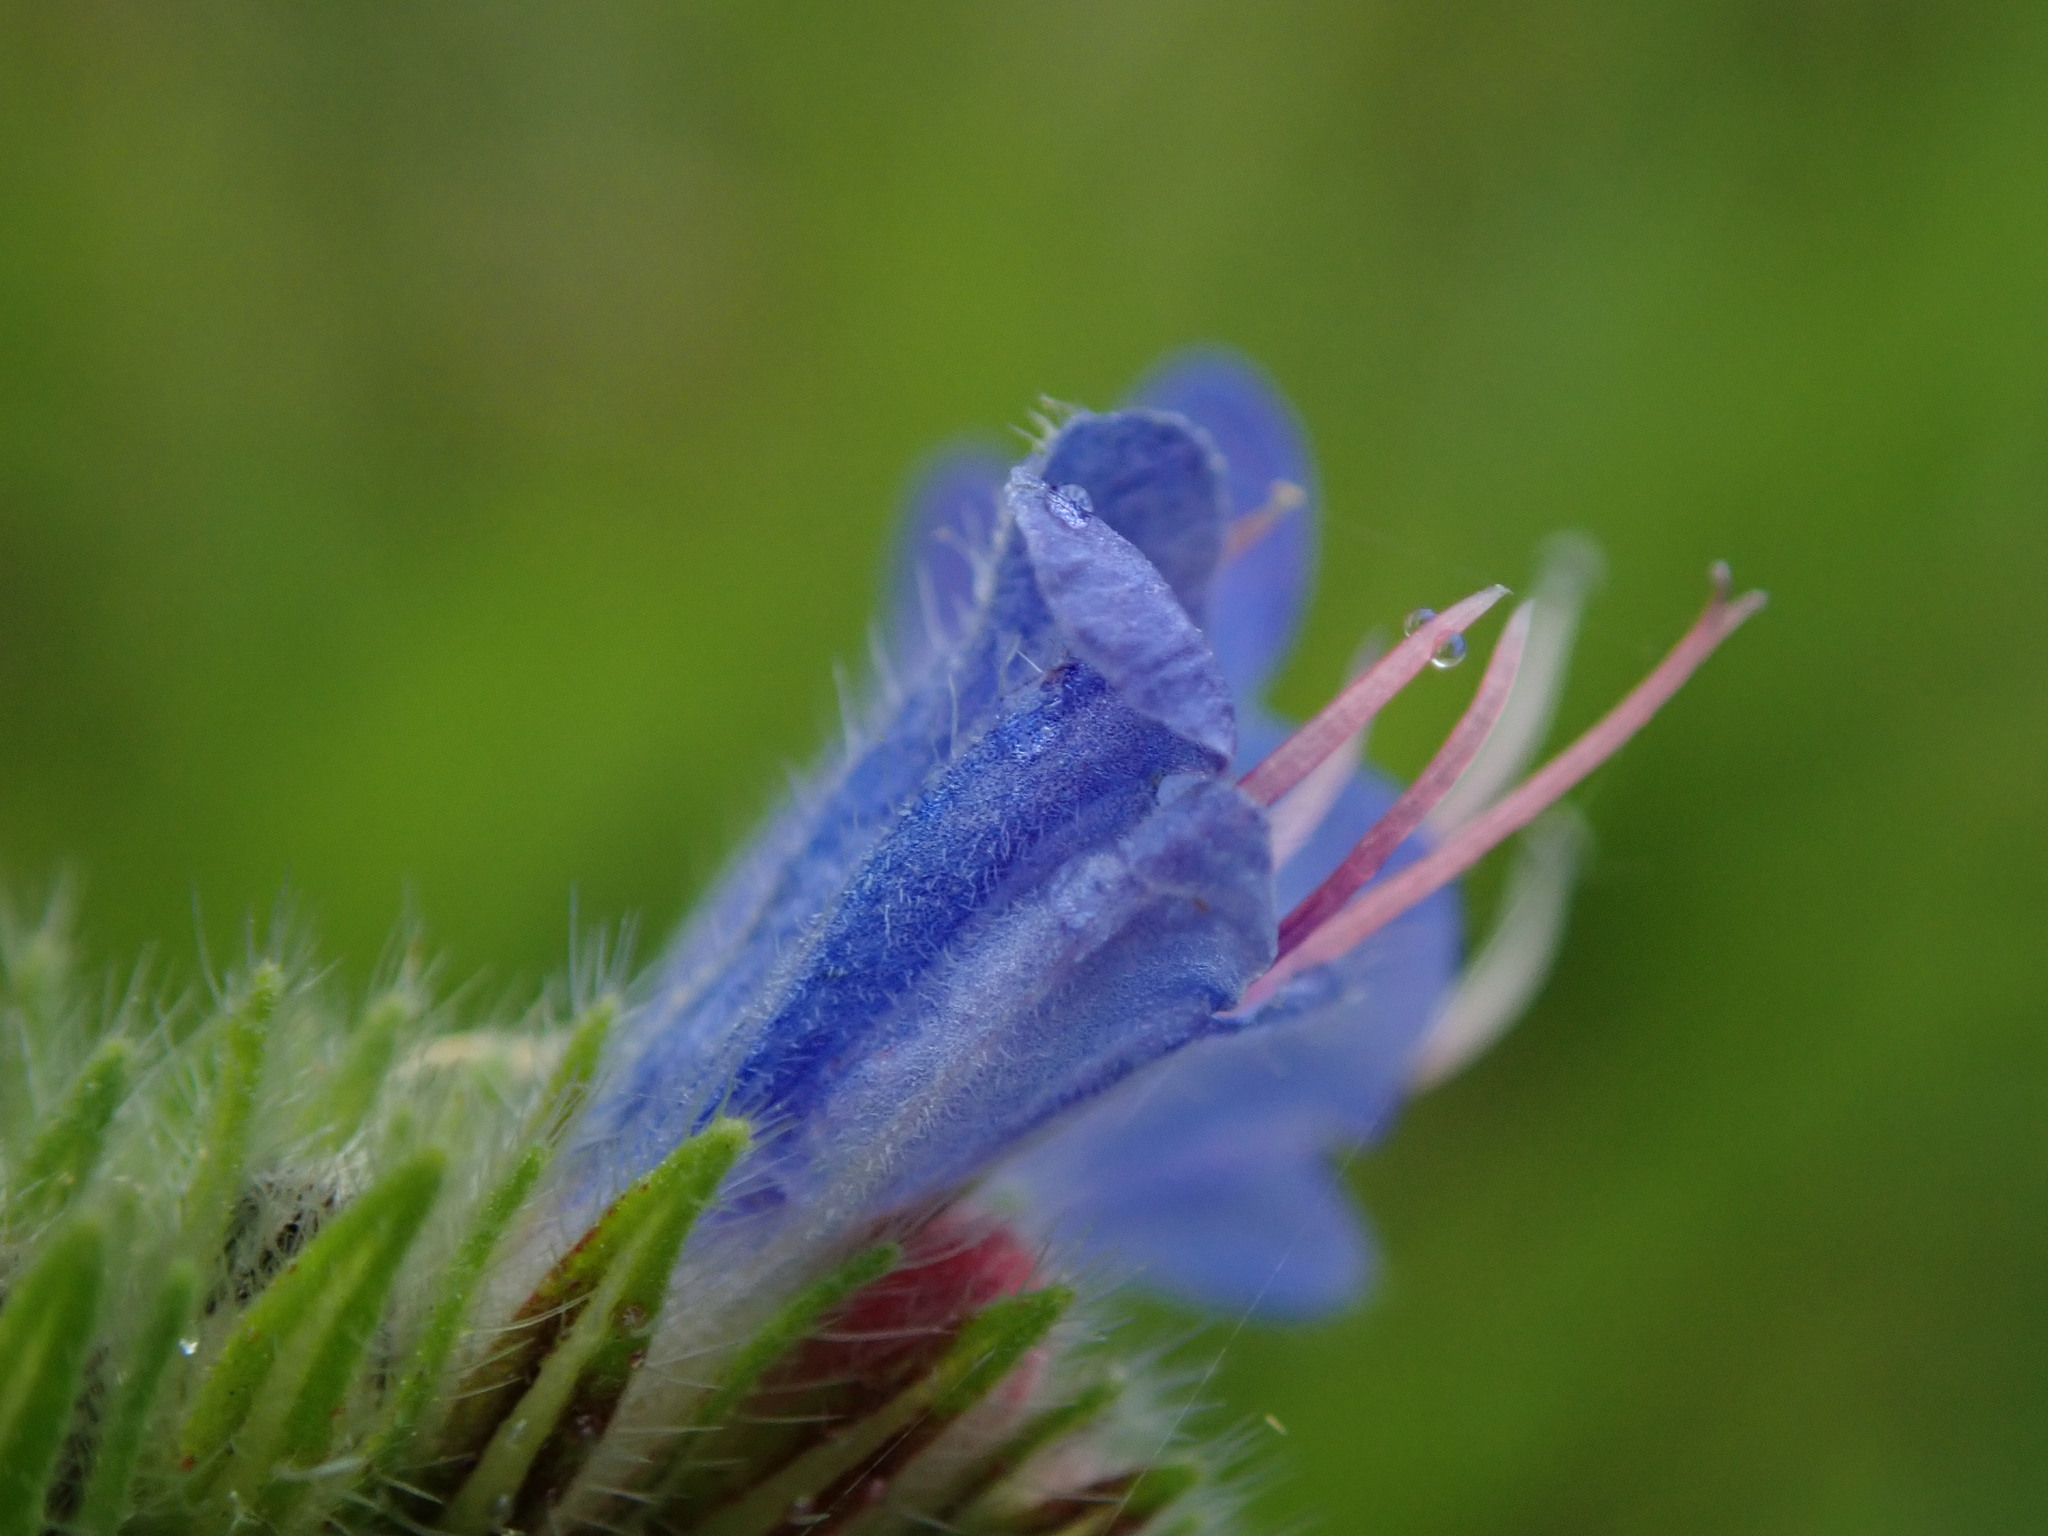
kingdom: Plantae
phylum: Tracheophyta
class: Magnoliopsida
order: Boraginales
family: Boraginaceae
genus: Echium
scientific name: Echium vulgare
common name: Common viper's bugloss
